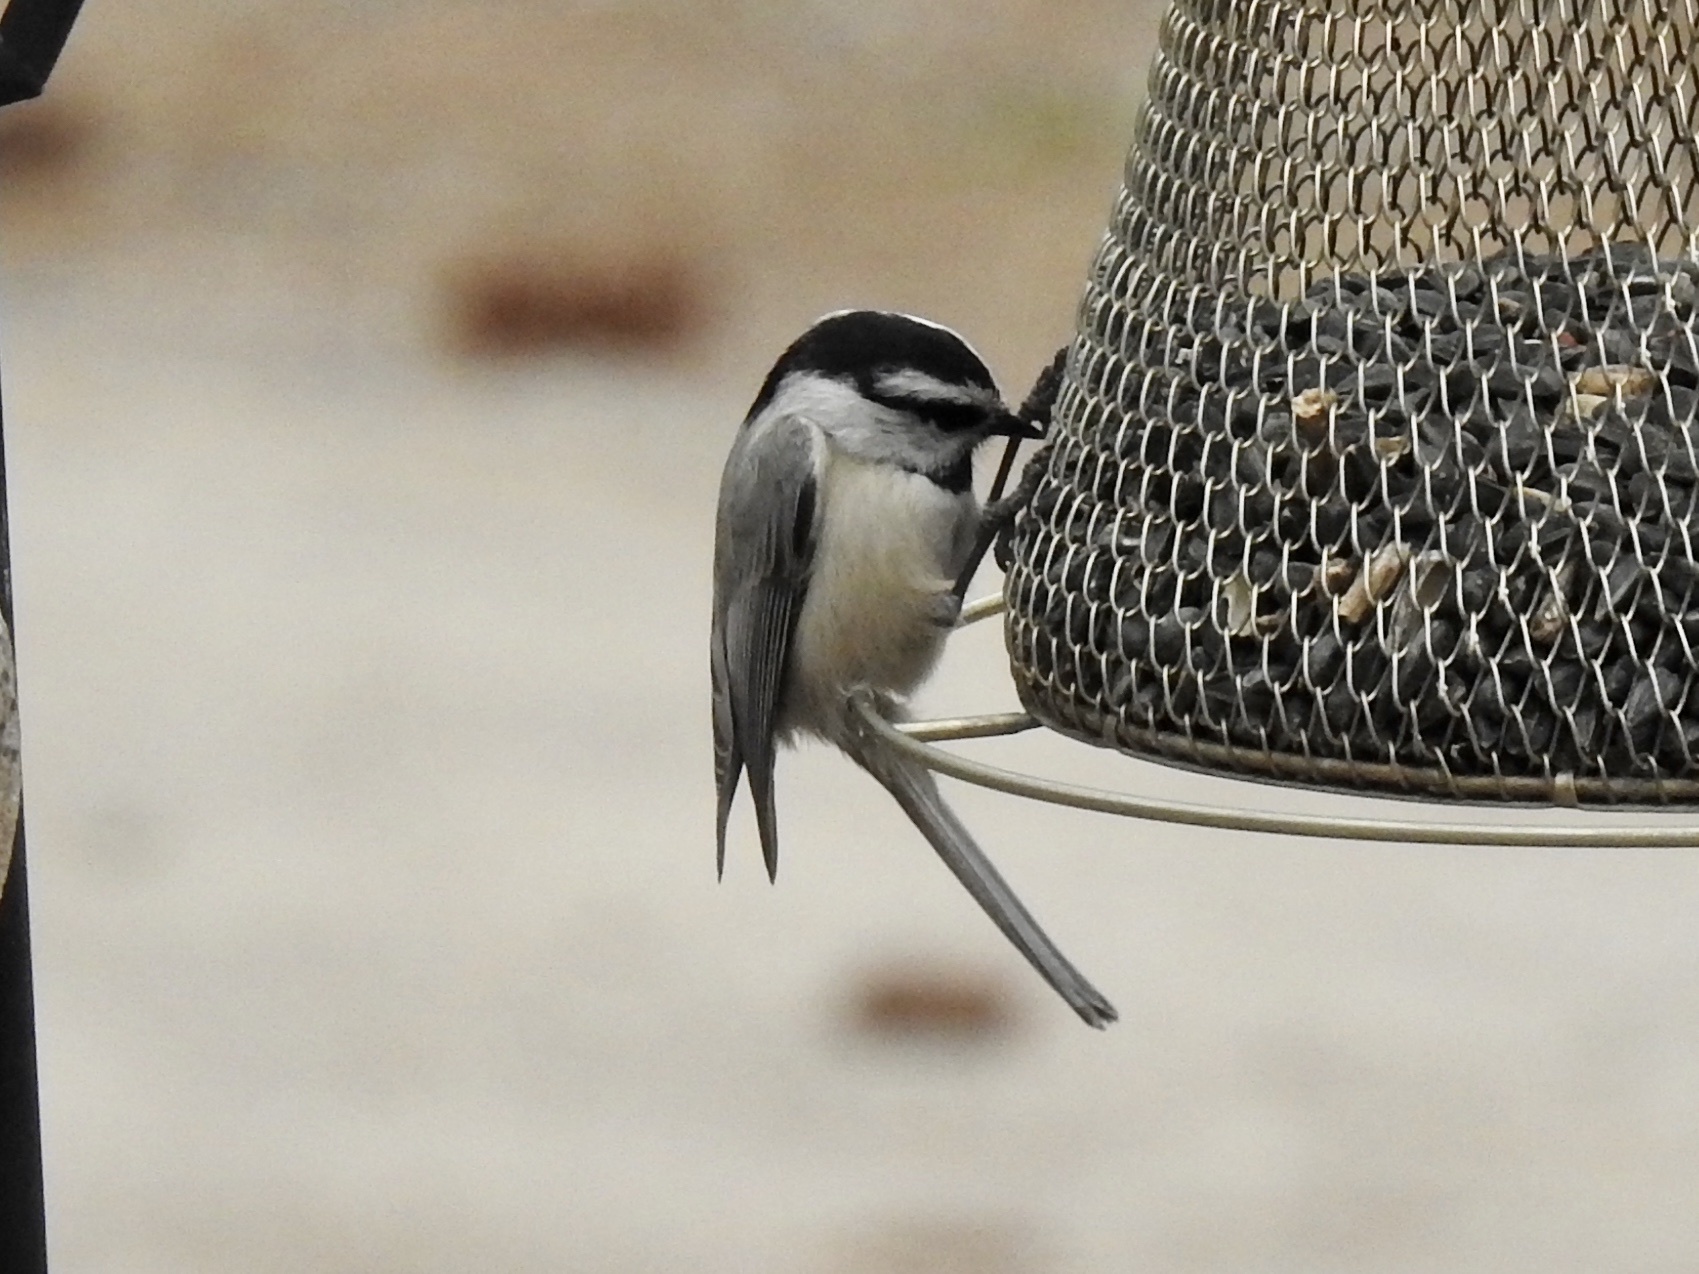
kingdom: Animalia
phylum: Chordata
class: Aves
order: Passeriformes
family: Paridae
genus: Poecile
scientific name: Poecile gambeli
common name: Mountain chickadee
